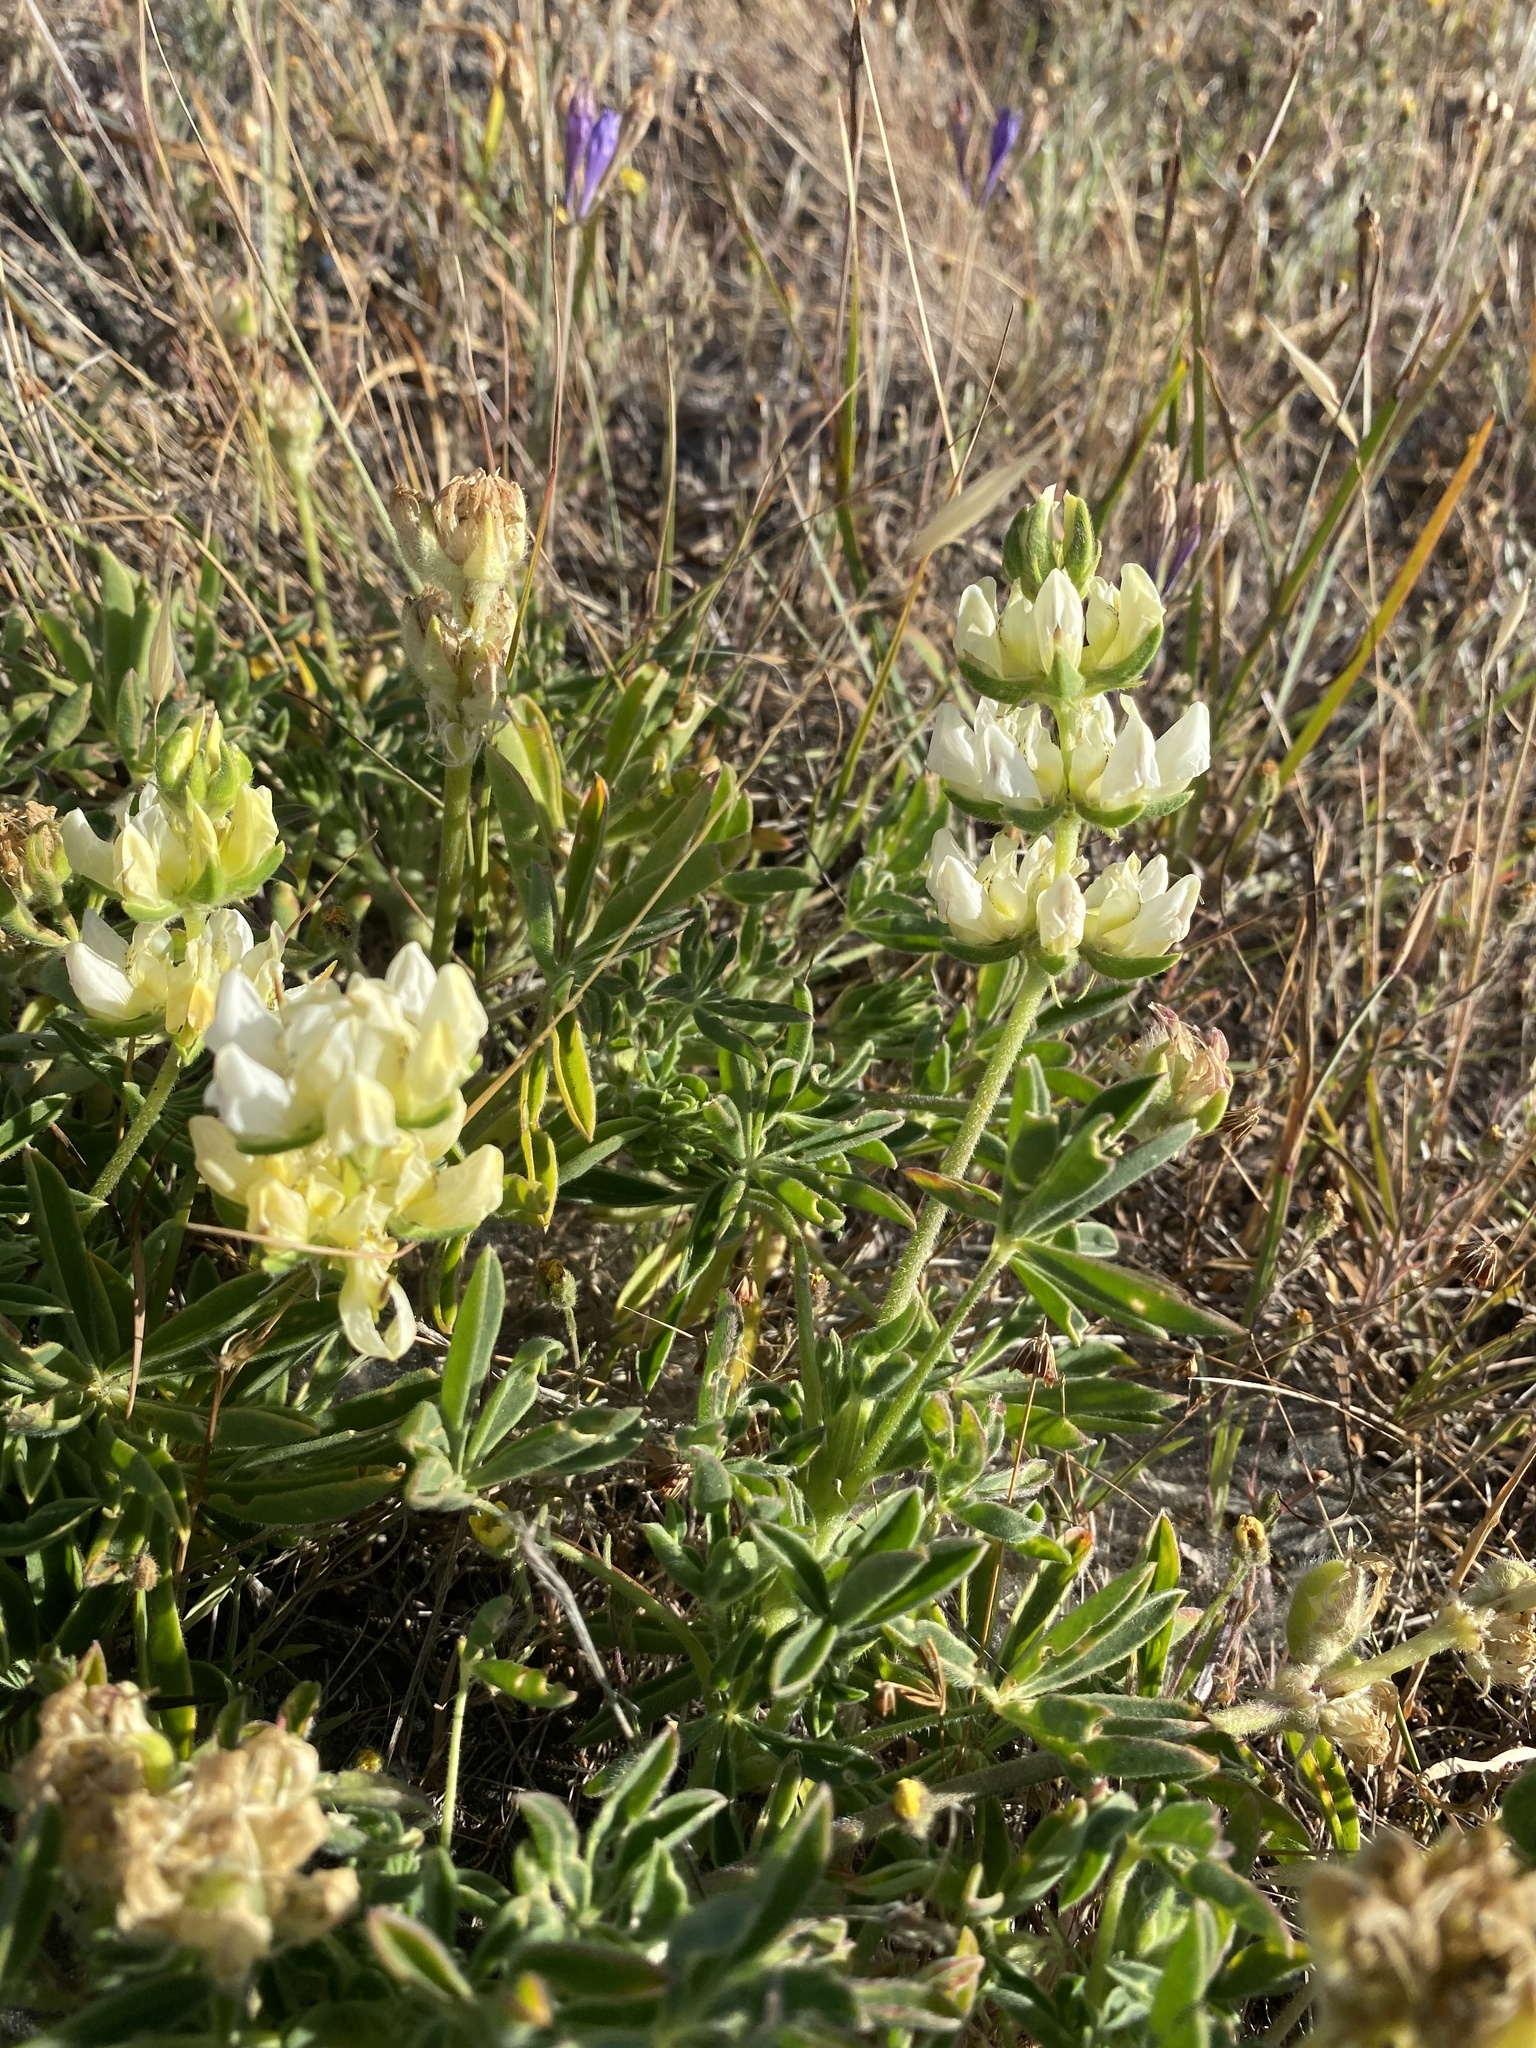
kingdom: Plantae
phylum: Tracheophyta
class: Magnoliopsida
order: Fabales
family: Fabaceae
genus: Lupinus
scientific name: Lupinus microcarpus
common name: Chick lupine
